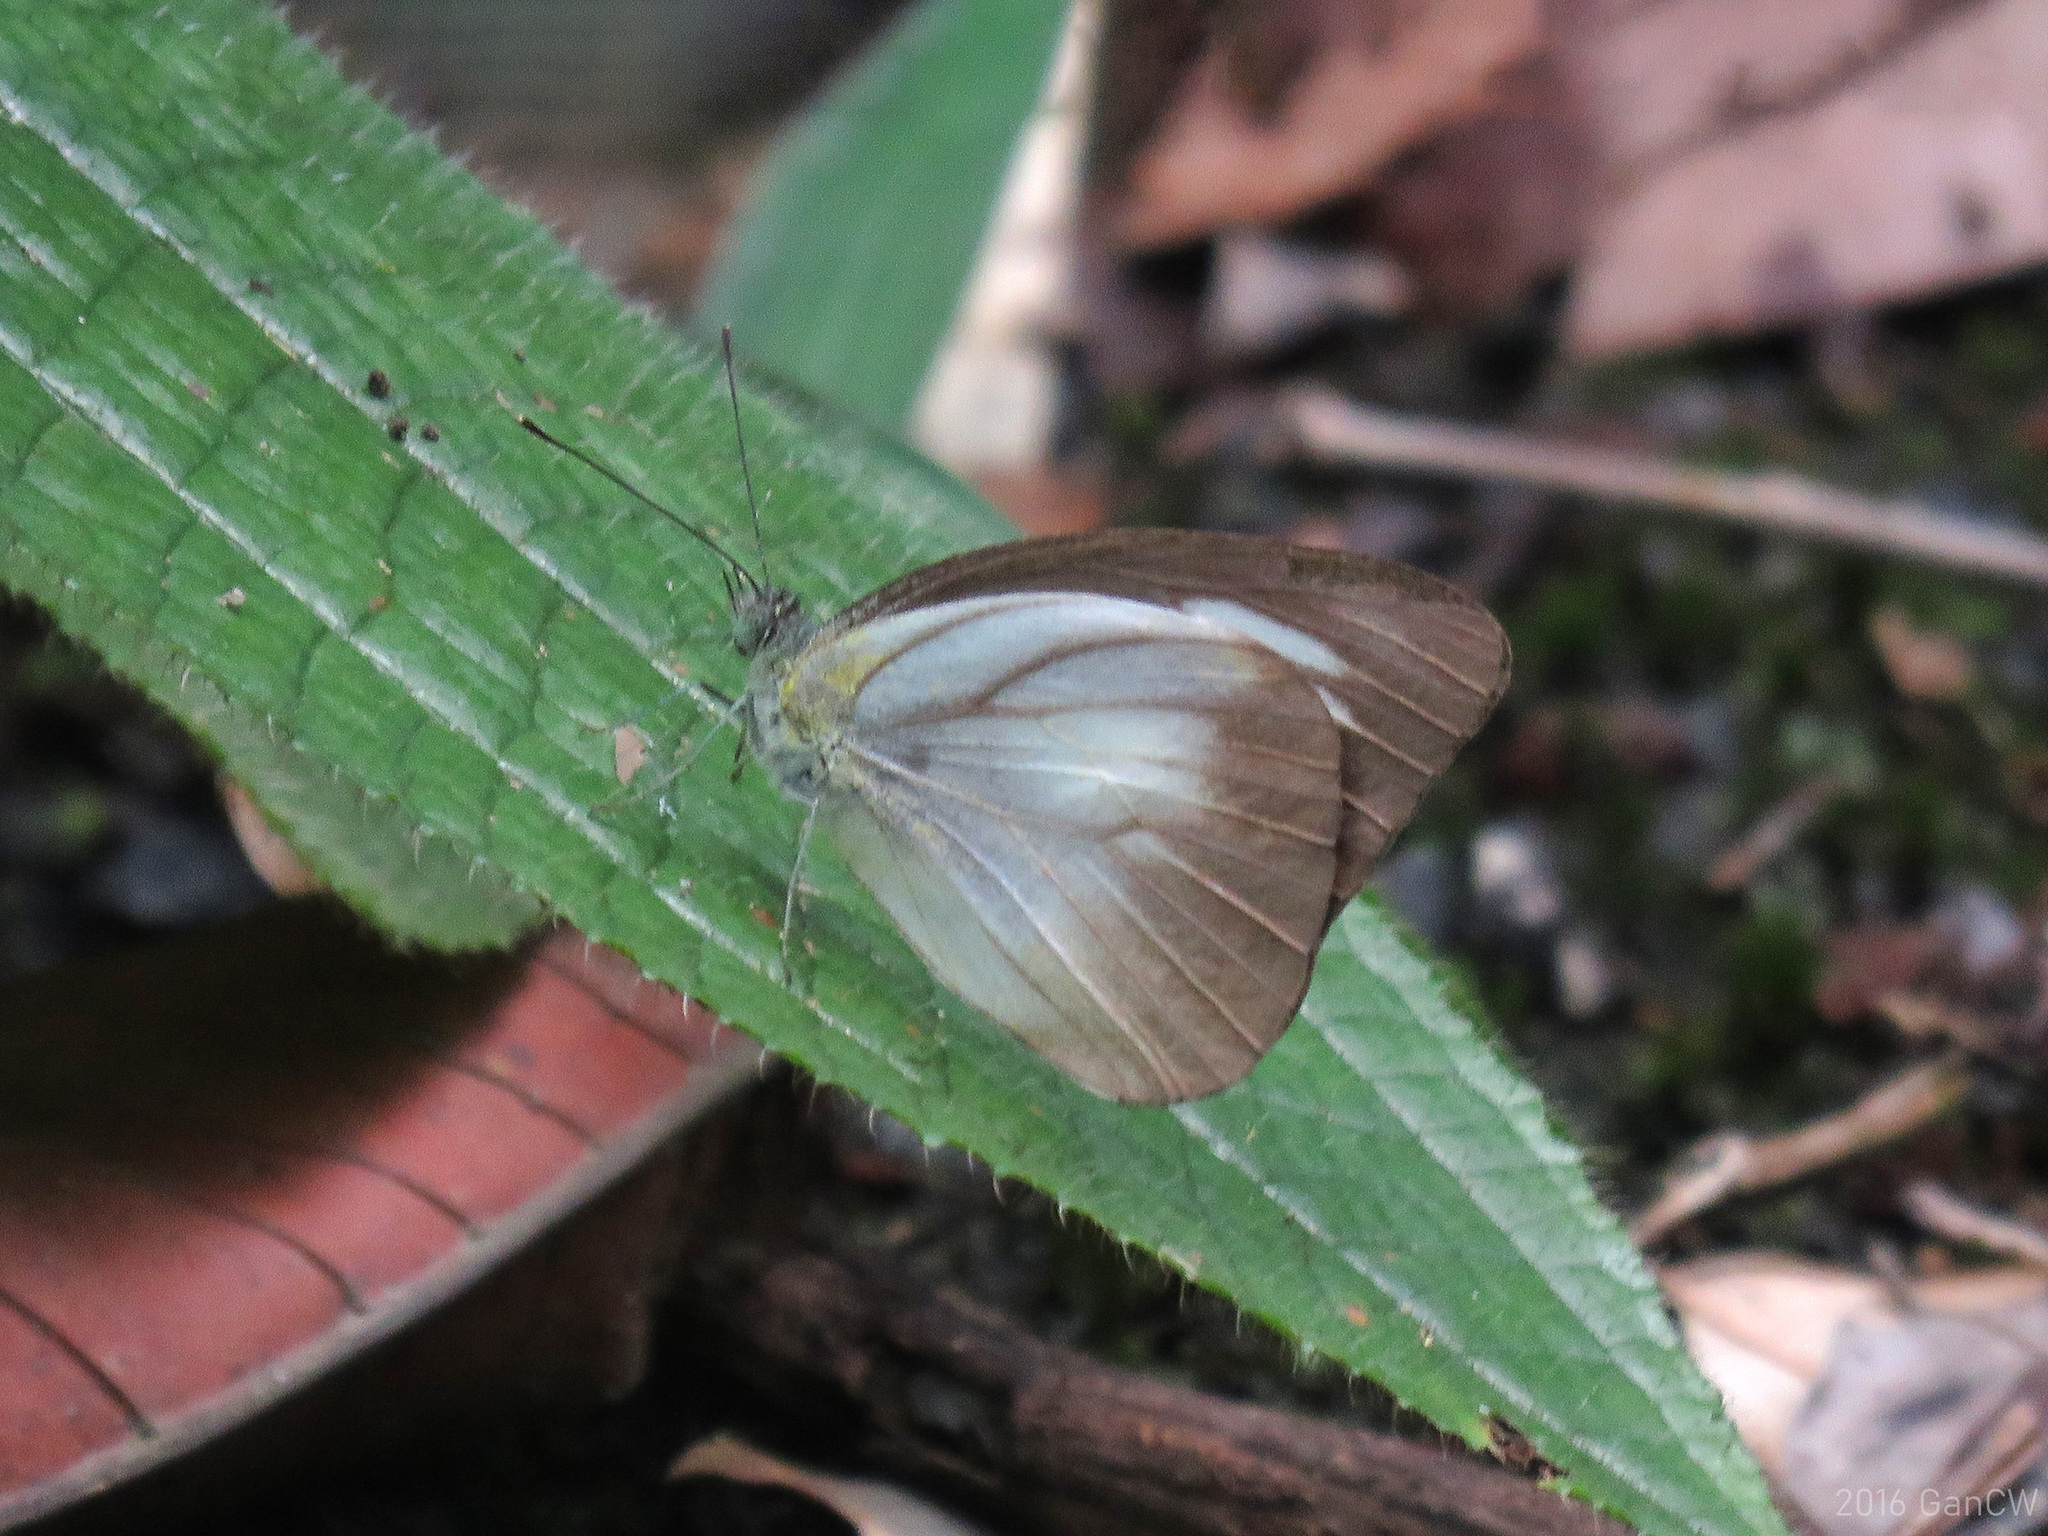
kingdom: Animalia
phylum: Arthropoda
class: Insecta
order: Lepidoptera
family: Pieridae
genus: Appias
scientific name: Appias lyncida
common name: Chocolate albatross
